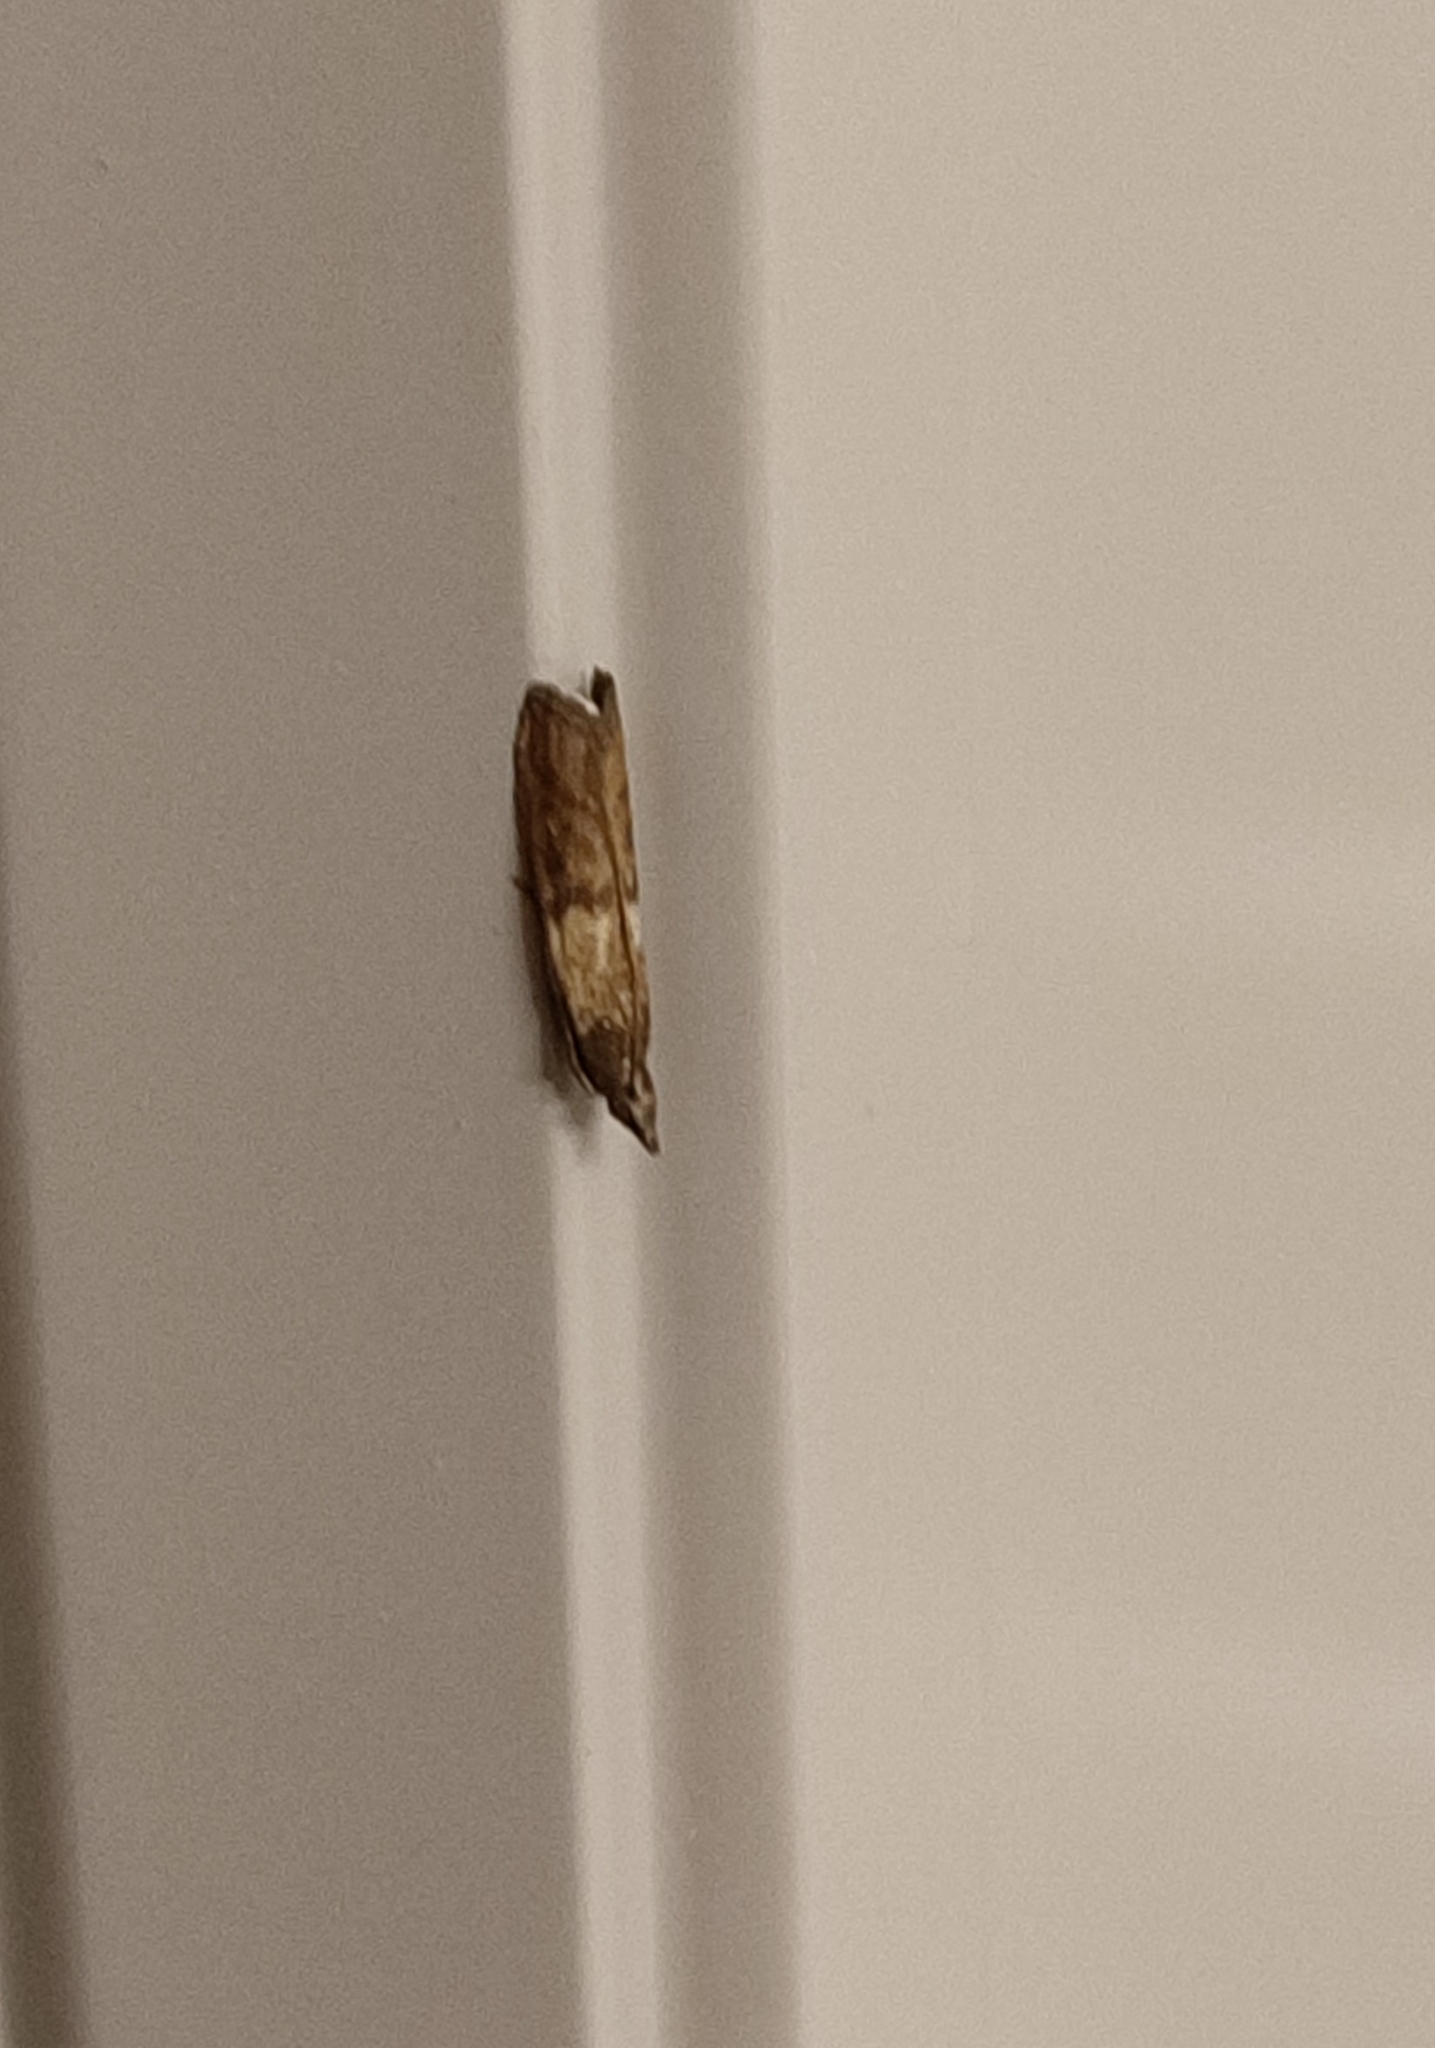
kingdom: Animalia
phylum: Arthropoda
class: Insecta
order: Lepidoptera
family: Pyralidae
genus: Plodia
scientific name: Plodia interpunctella
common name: Indian meal moth
